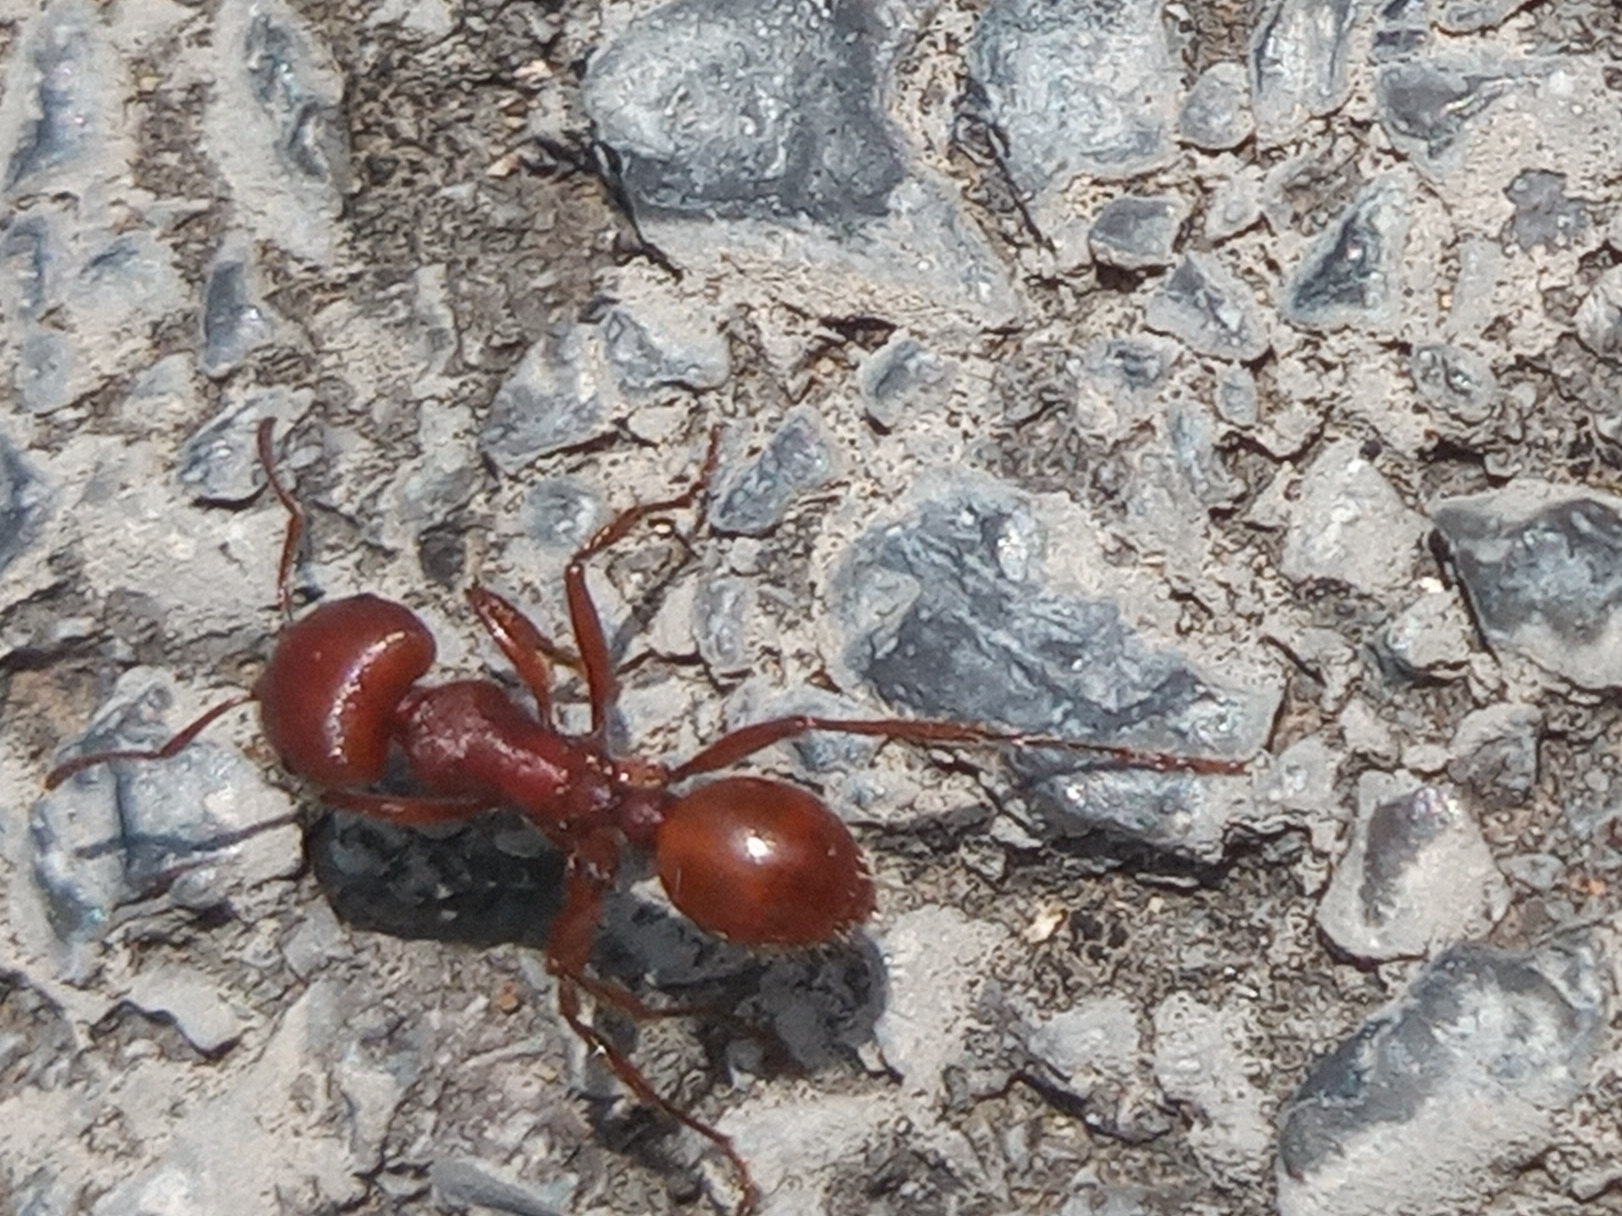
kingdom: Animalia
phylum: Arthropoda
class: Insecta
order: Hymenoptera
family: Formicidae
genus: Pogonomyrmex
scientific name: Pogonomyrmex barbatus
